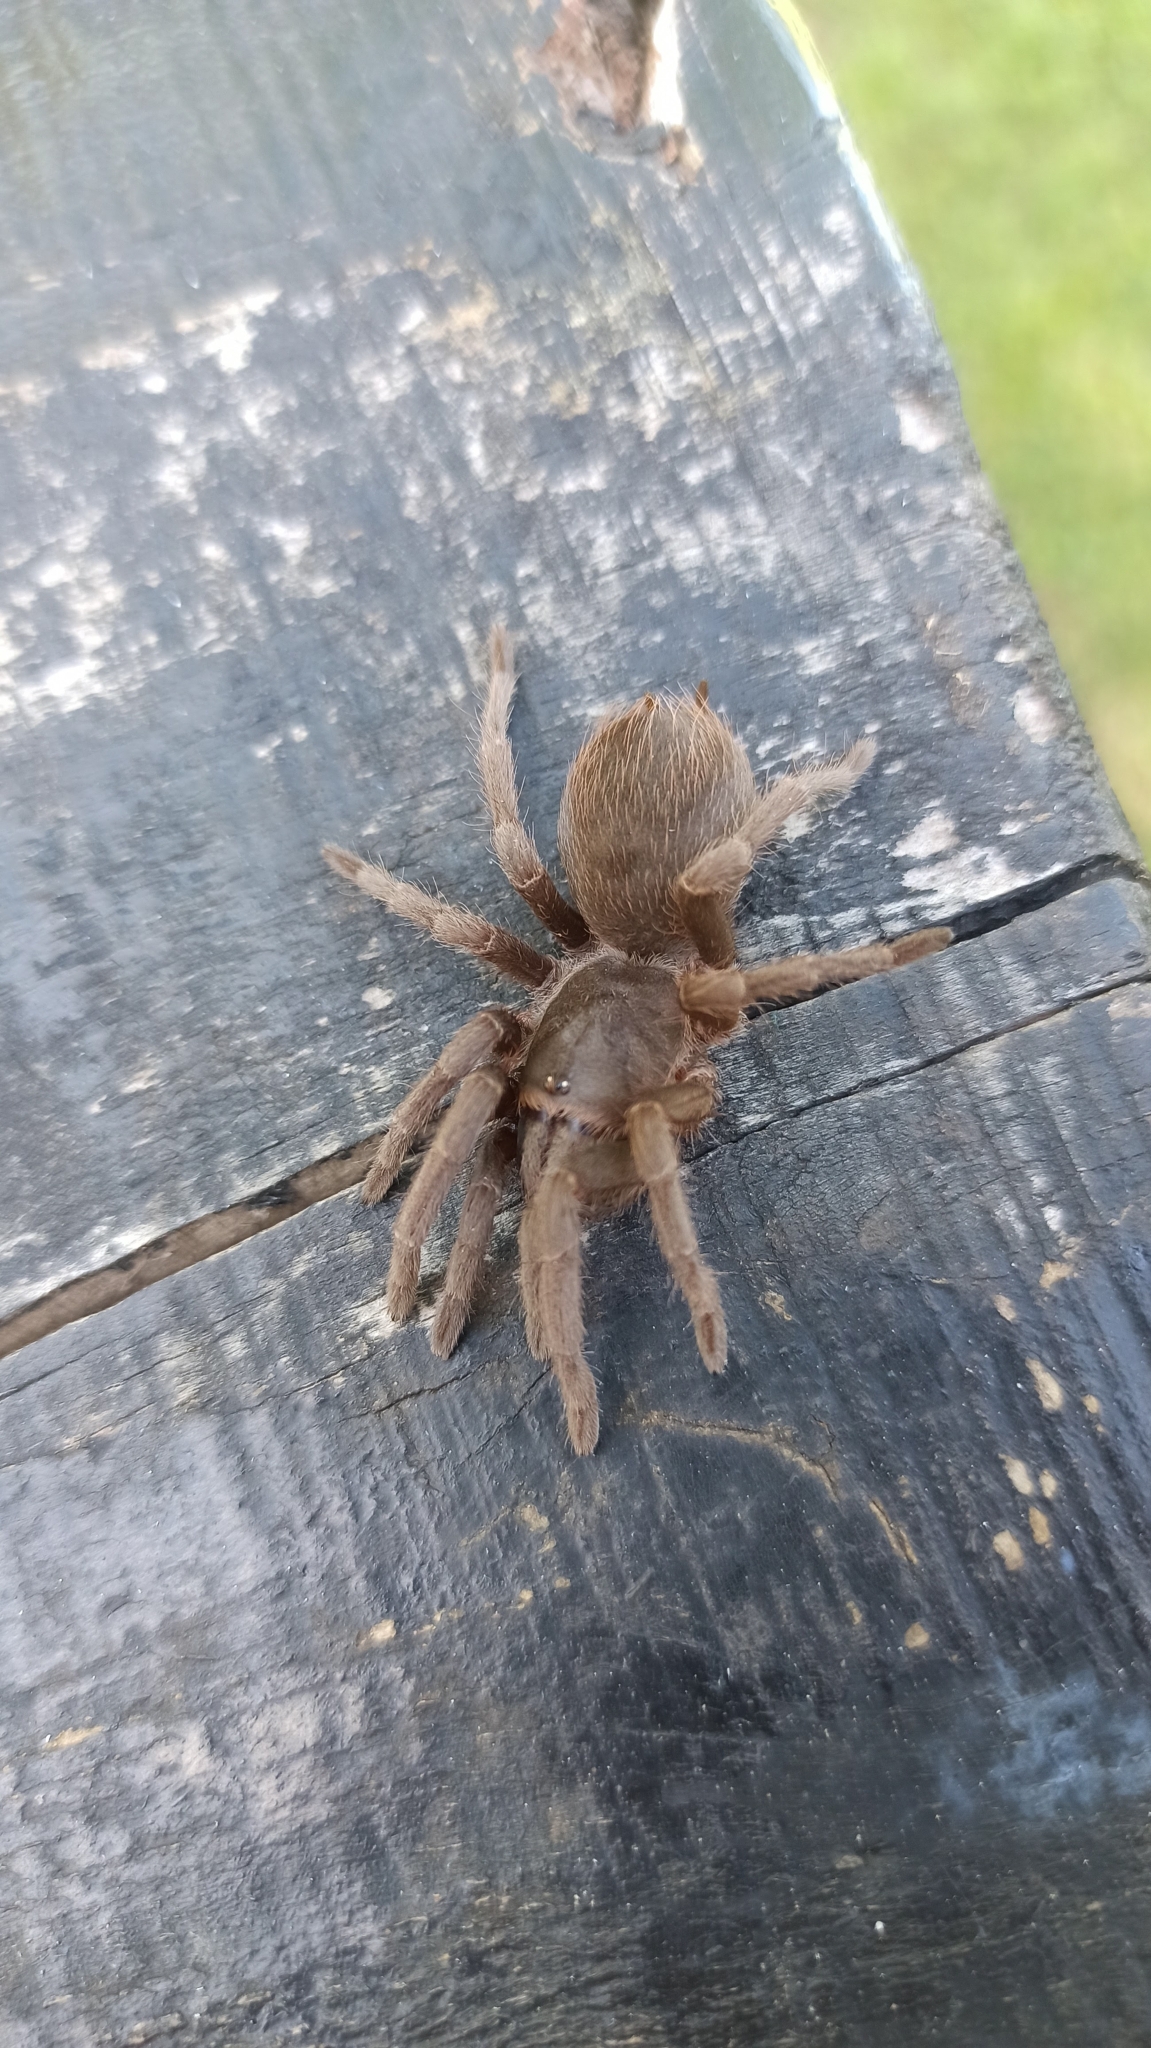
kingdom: Animalia
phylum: Arthropoda
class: Arachnida
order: Araneae
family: Theraphosidae
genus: Acanthoscurria
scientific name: Acanthoscurria cordubensis
